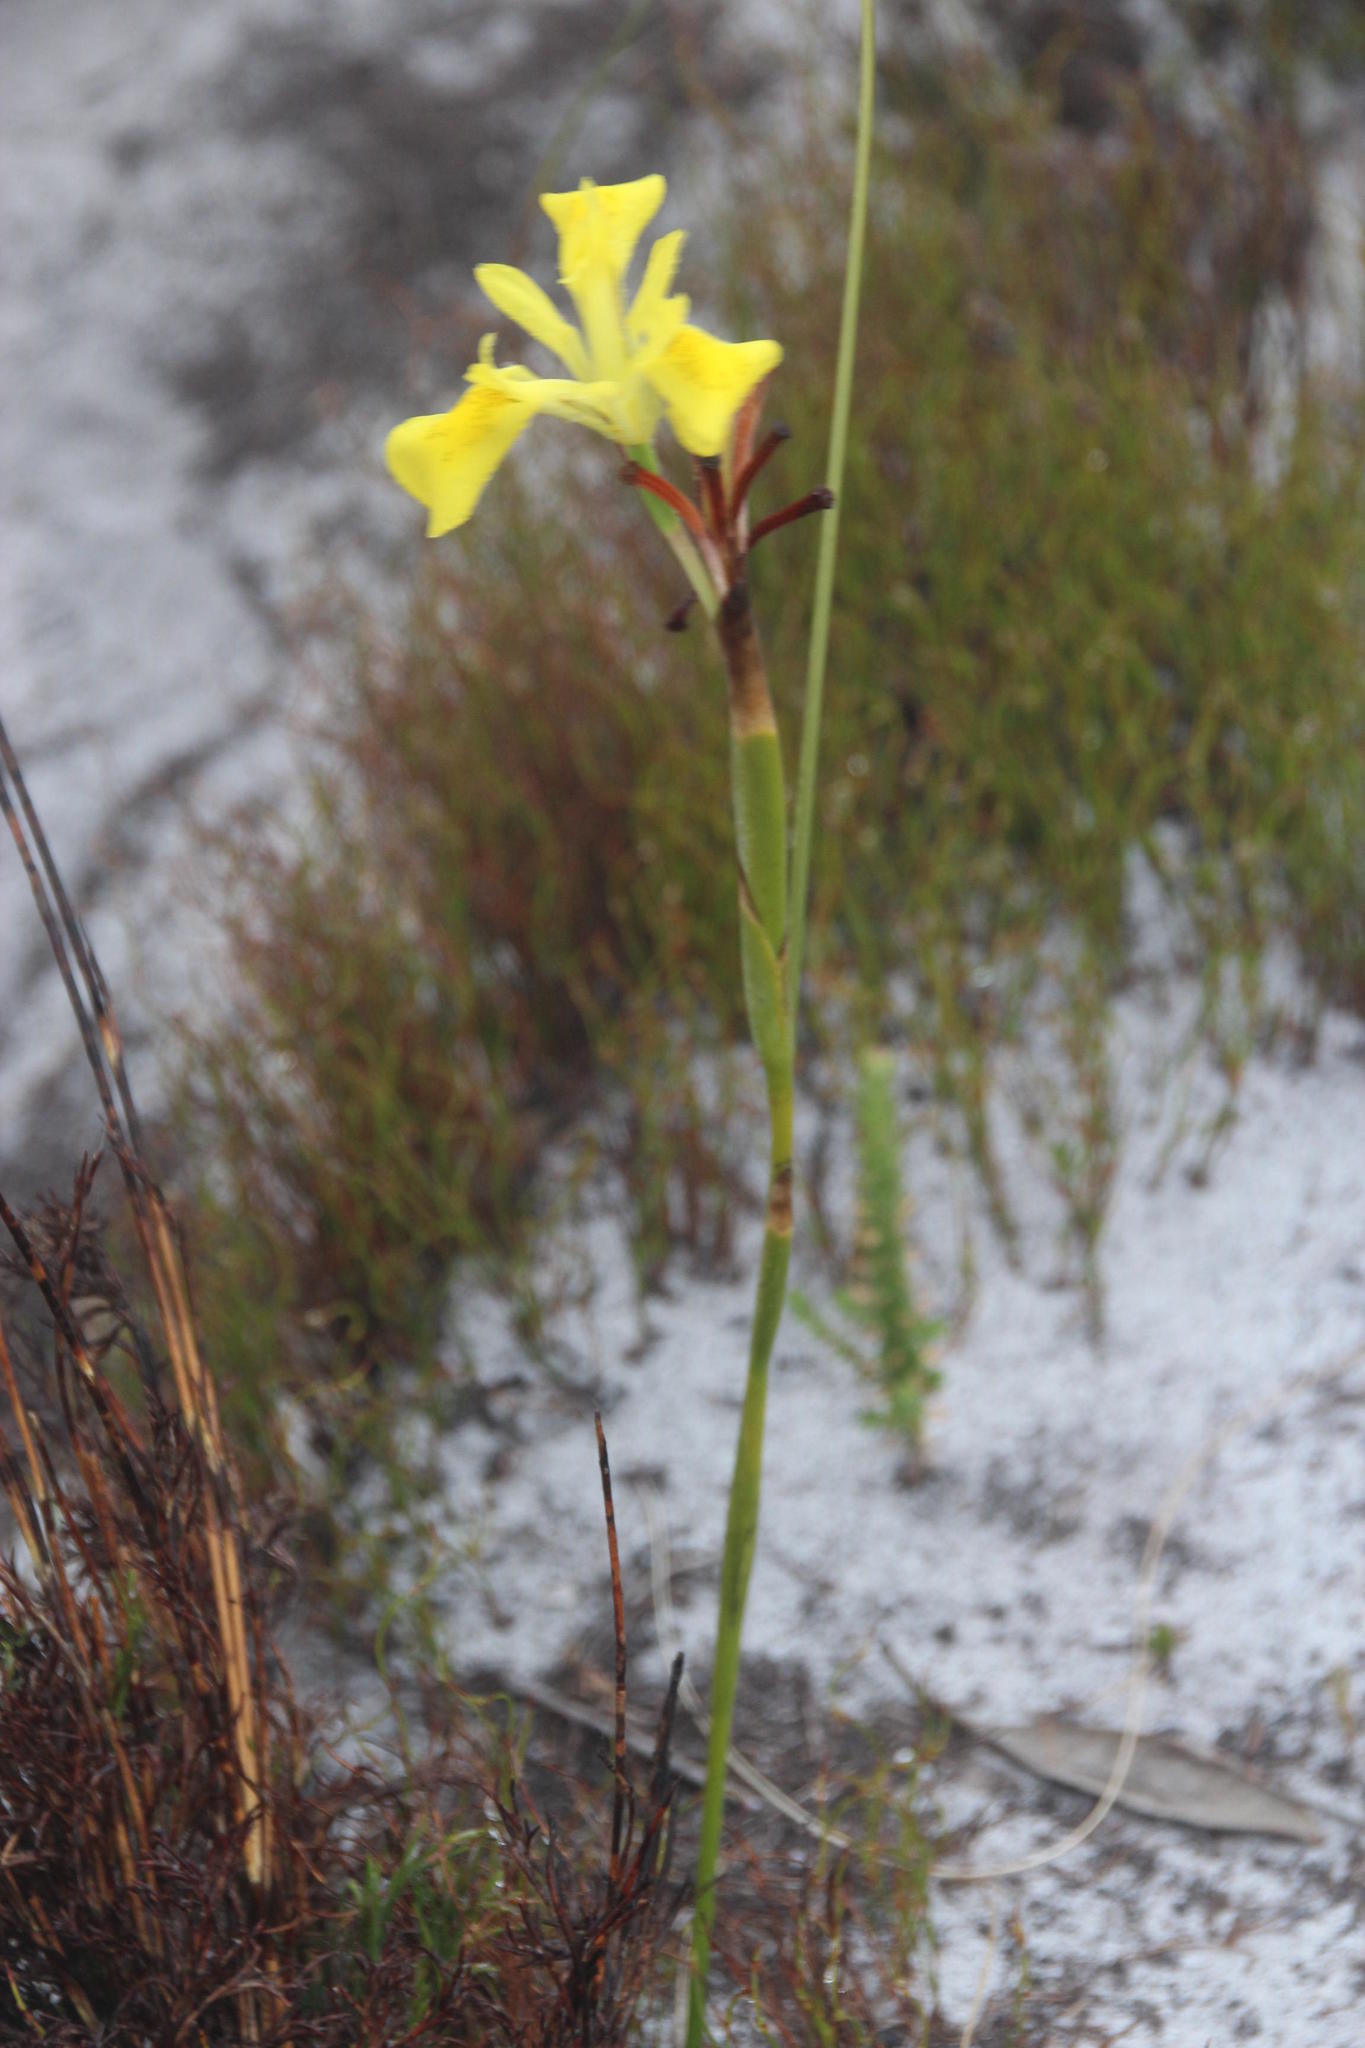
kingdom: Plantae
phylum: Tracheophyta
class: Liliopsida
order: Asparagales
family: Iridaceae
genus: Moraea
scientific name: Moraea neglecta
